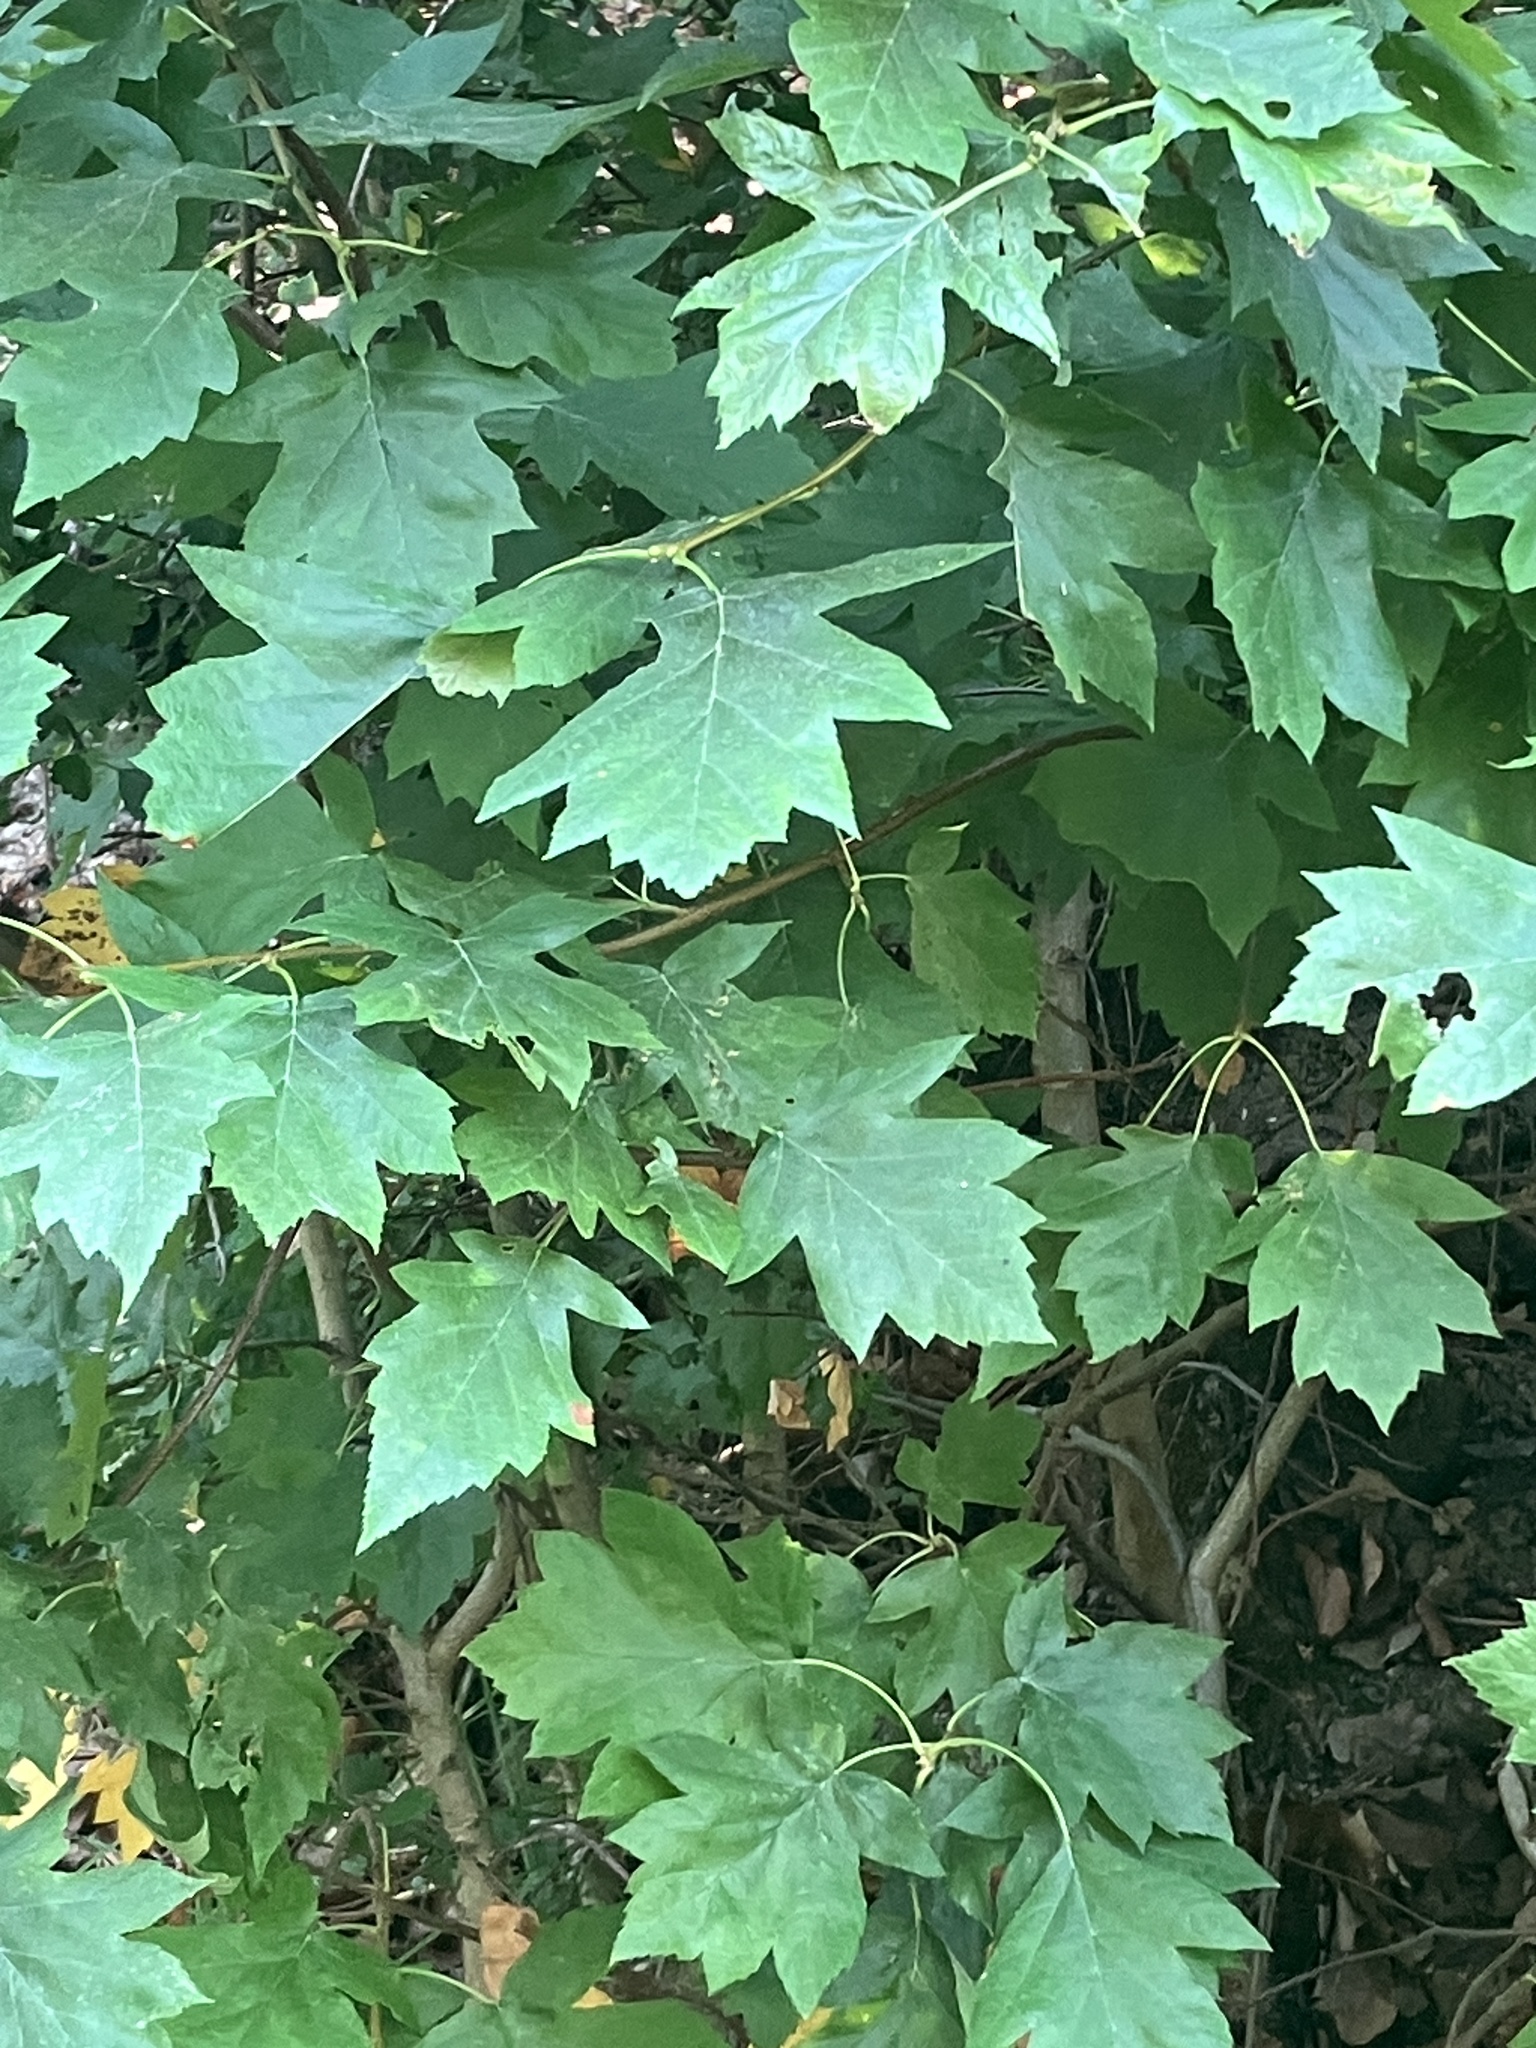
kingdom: Plantae
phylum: Tracheophyta
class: Magnoliopsida
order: Rosales
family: Rosaceae
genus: Torminalis
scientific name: Torminalis glaberrima
